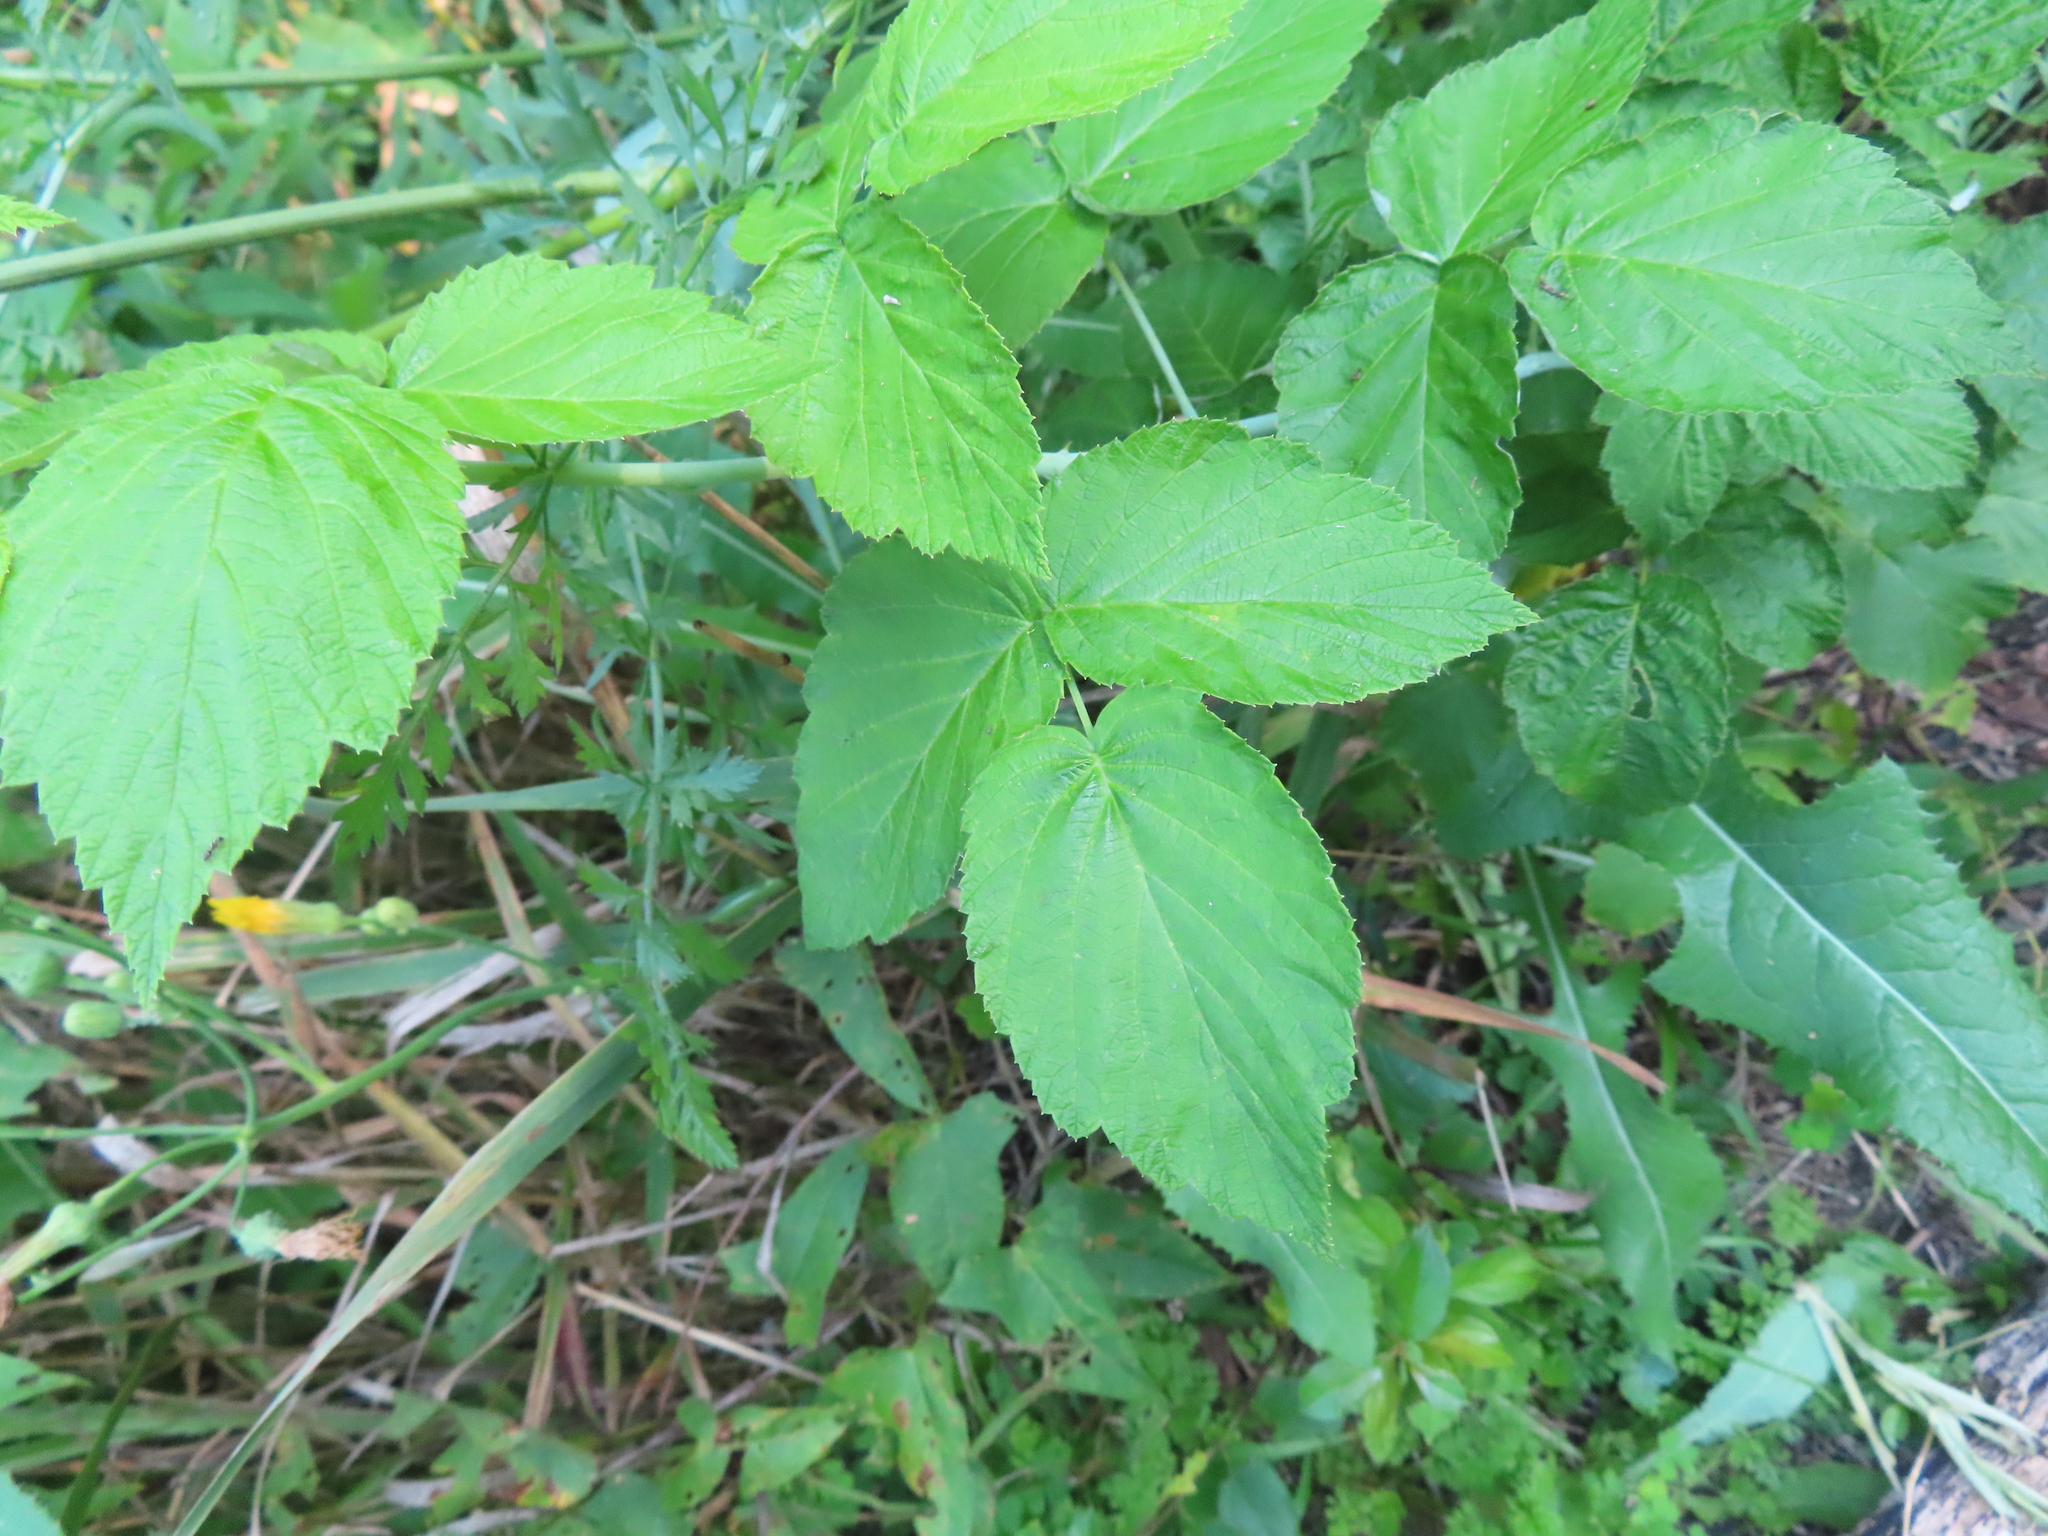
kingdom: Plantae
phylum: Tracheophyta
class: Magnoliopsida
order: Rosales
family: Rosaceae
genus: Rubus
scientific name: Rubus occidentalis
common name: Black raspberry
